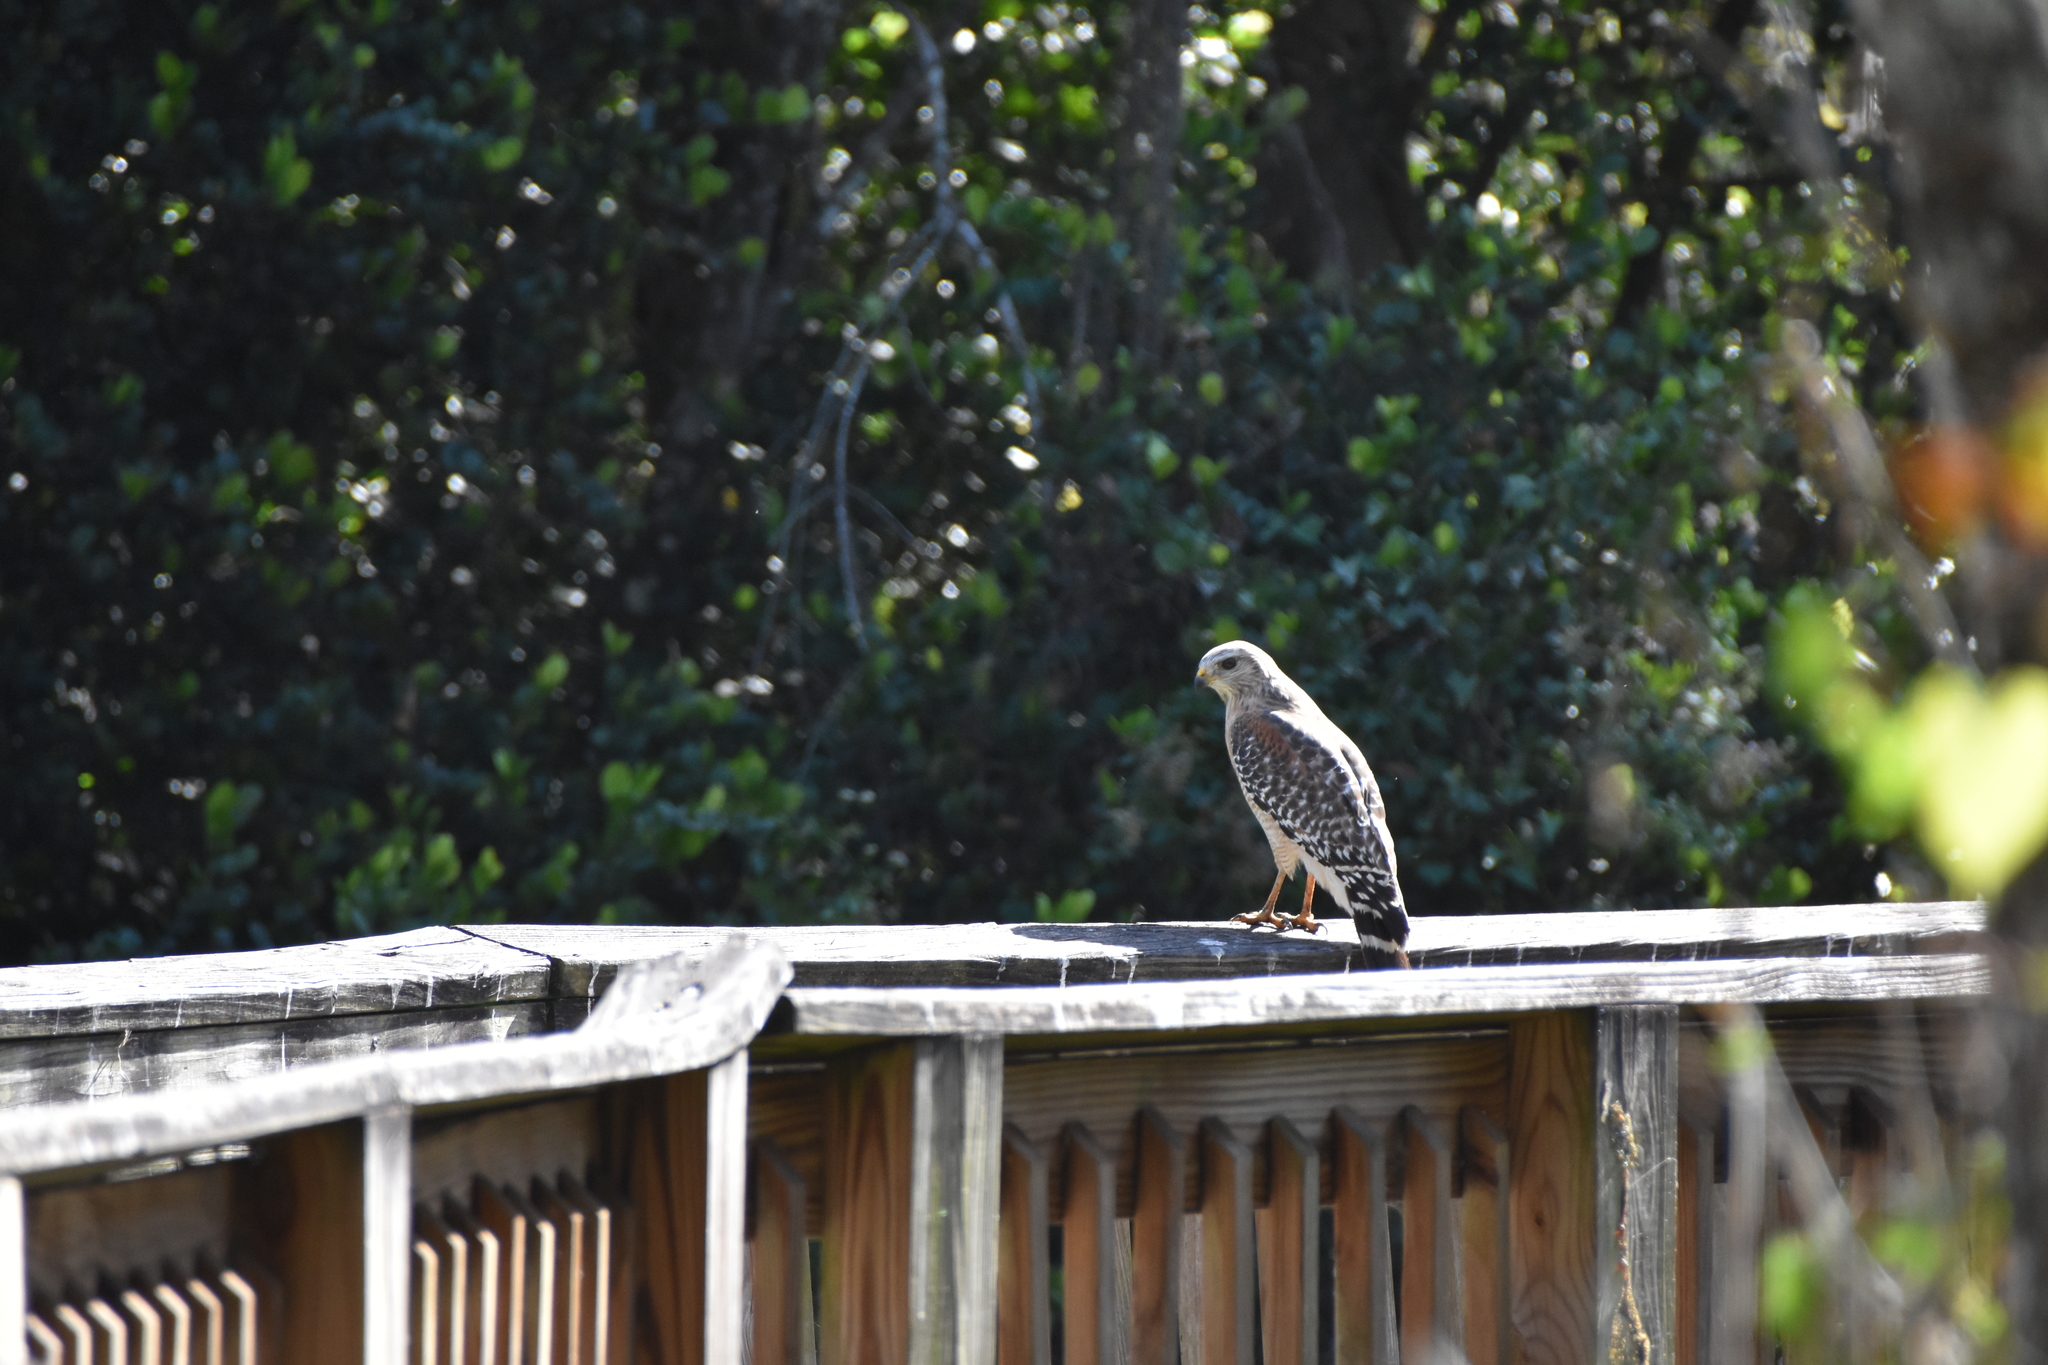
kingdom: Animalia
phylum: Chordata
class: Aves
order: Accipitriformes
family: Accipitridae
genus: Buteo
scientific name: Buteo lineatus
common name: Red-shouldered hawk
